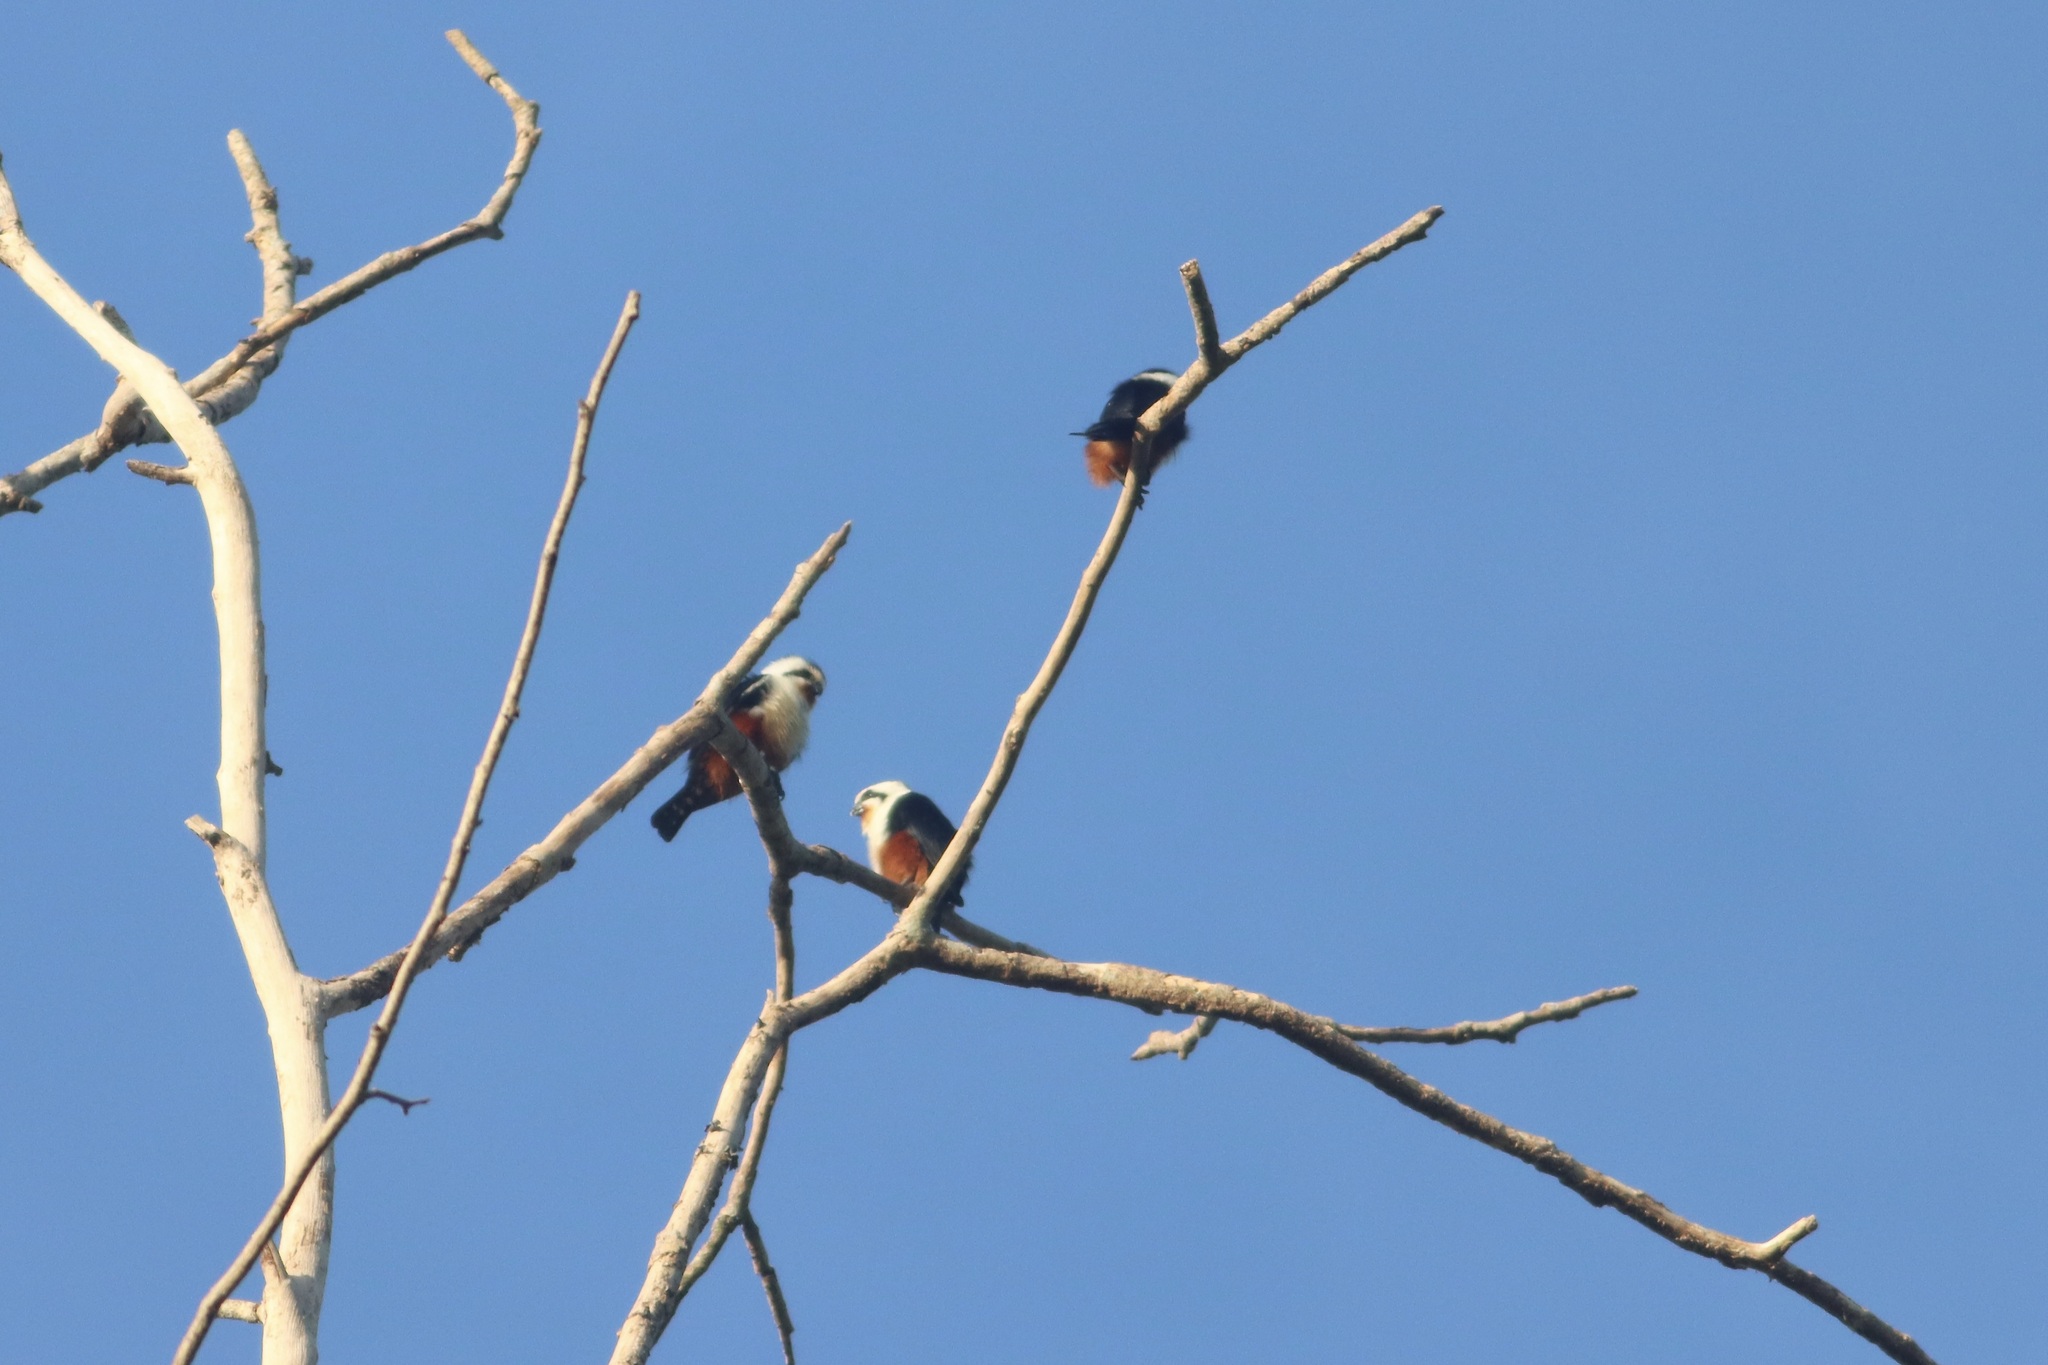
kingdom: Animalia
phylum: Chordata
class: Aves
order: Falconiformes
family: Falconidae
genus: Microhierax
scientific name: Microhierax caerulescens
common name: Collared falconet
